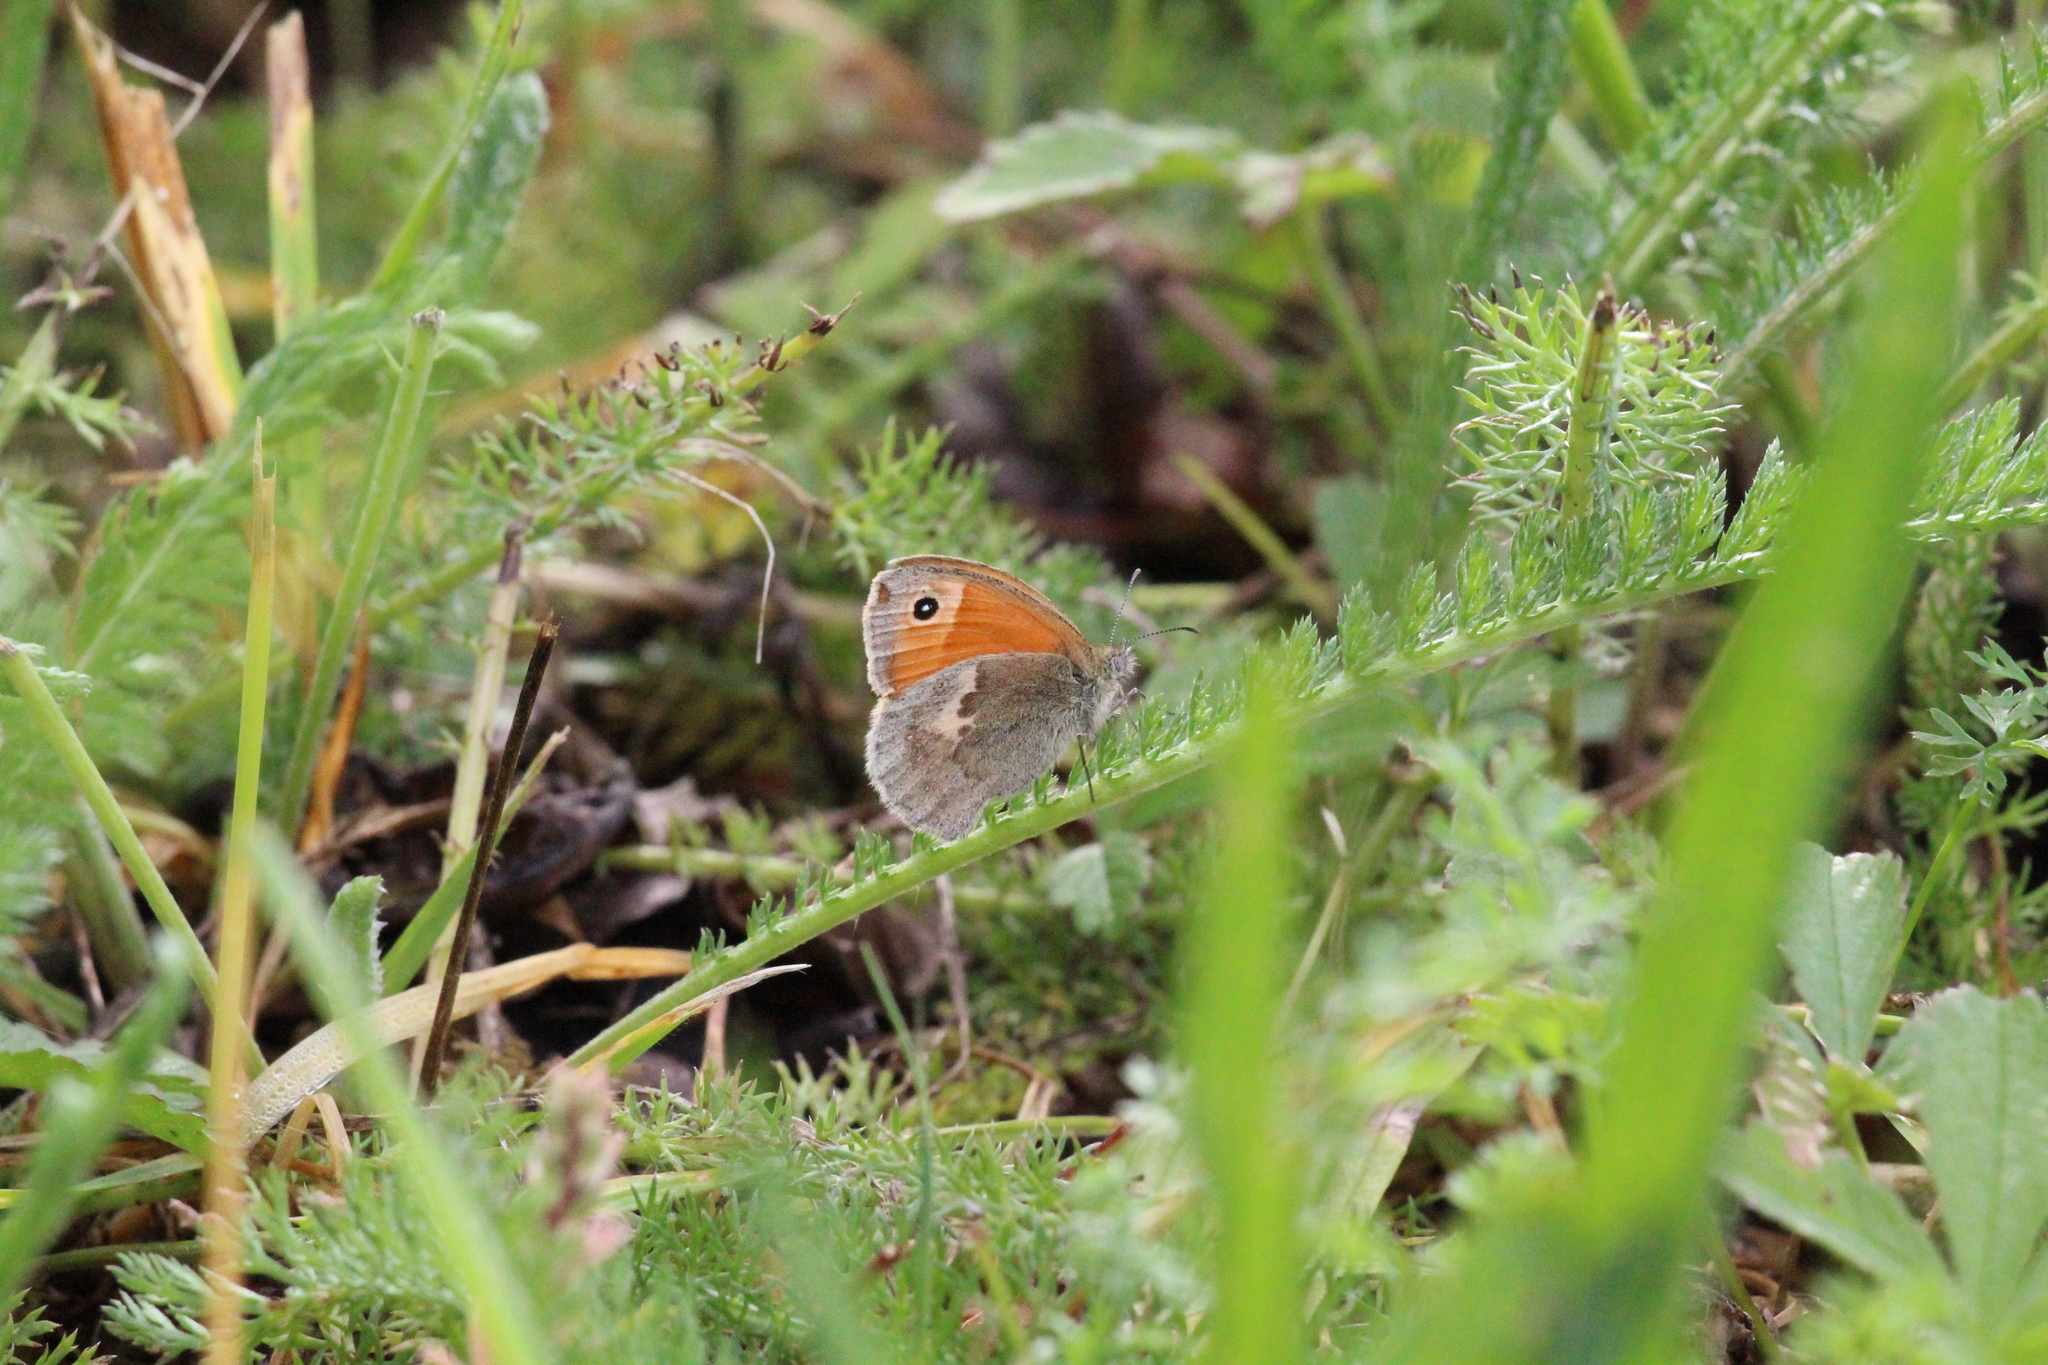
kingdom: Animalia
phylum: Arthropoda
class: Insecta
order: Lepidoptera
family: Nymphalidae
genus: Coenonympha
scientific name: Coenonympha pamphilus
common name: Small heath
